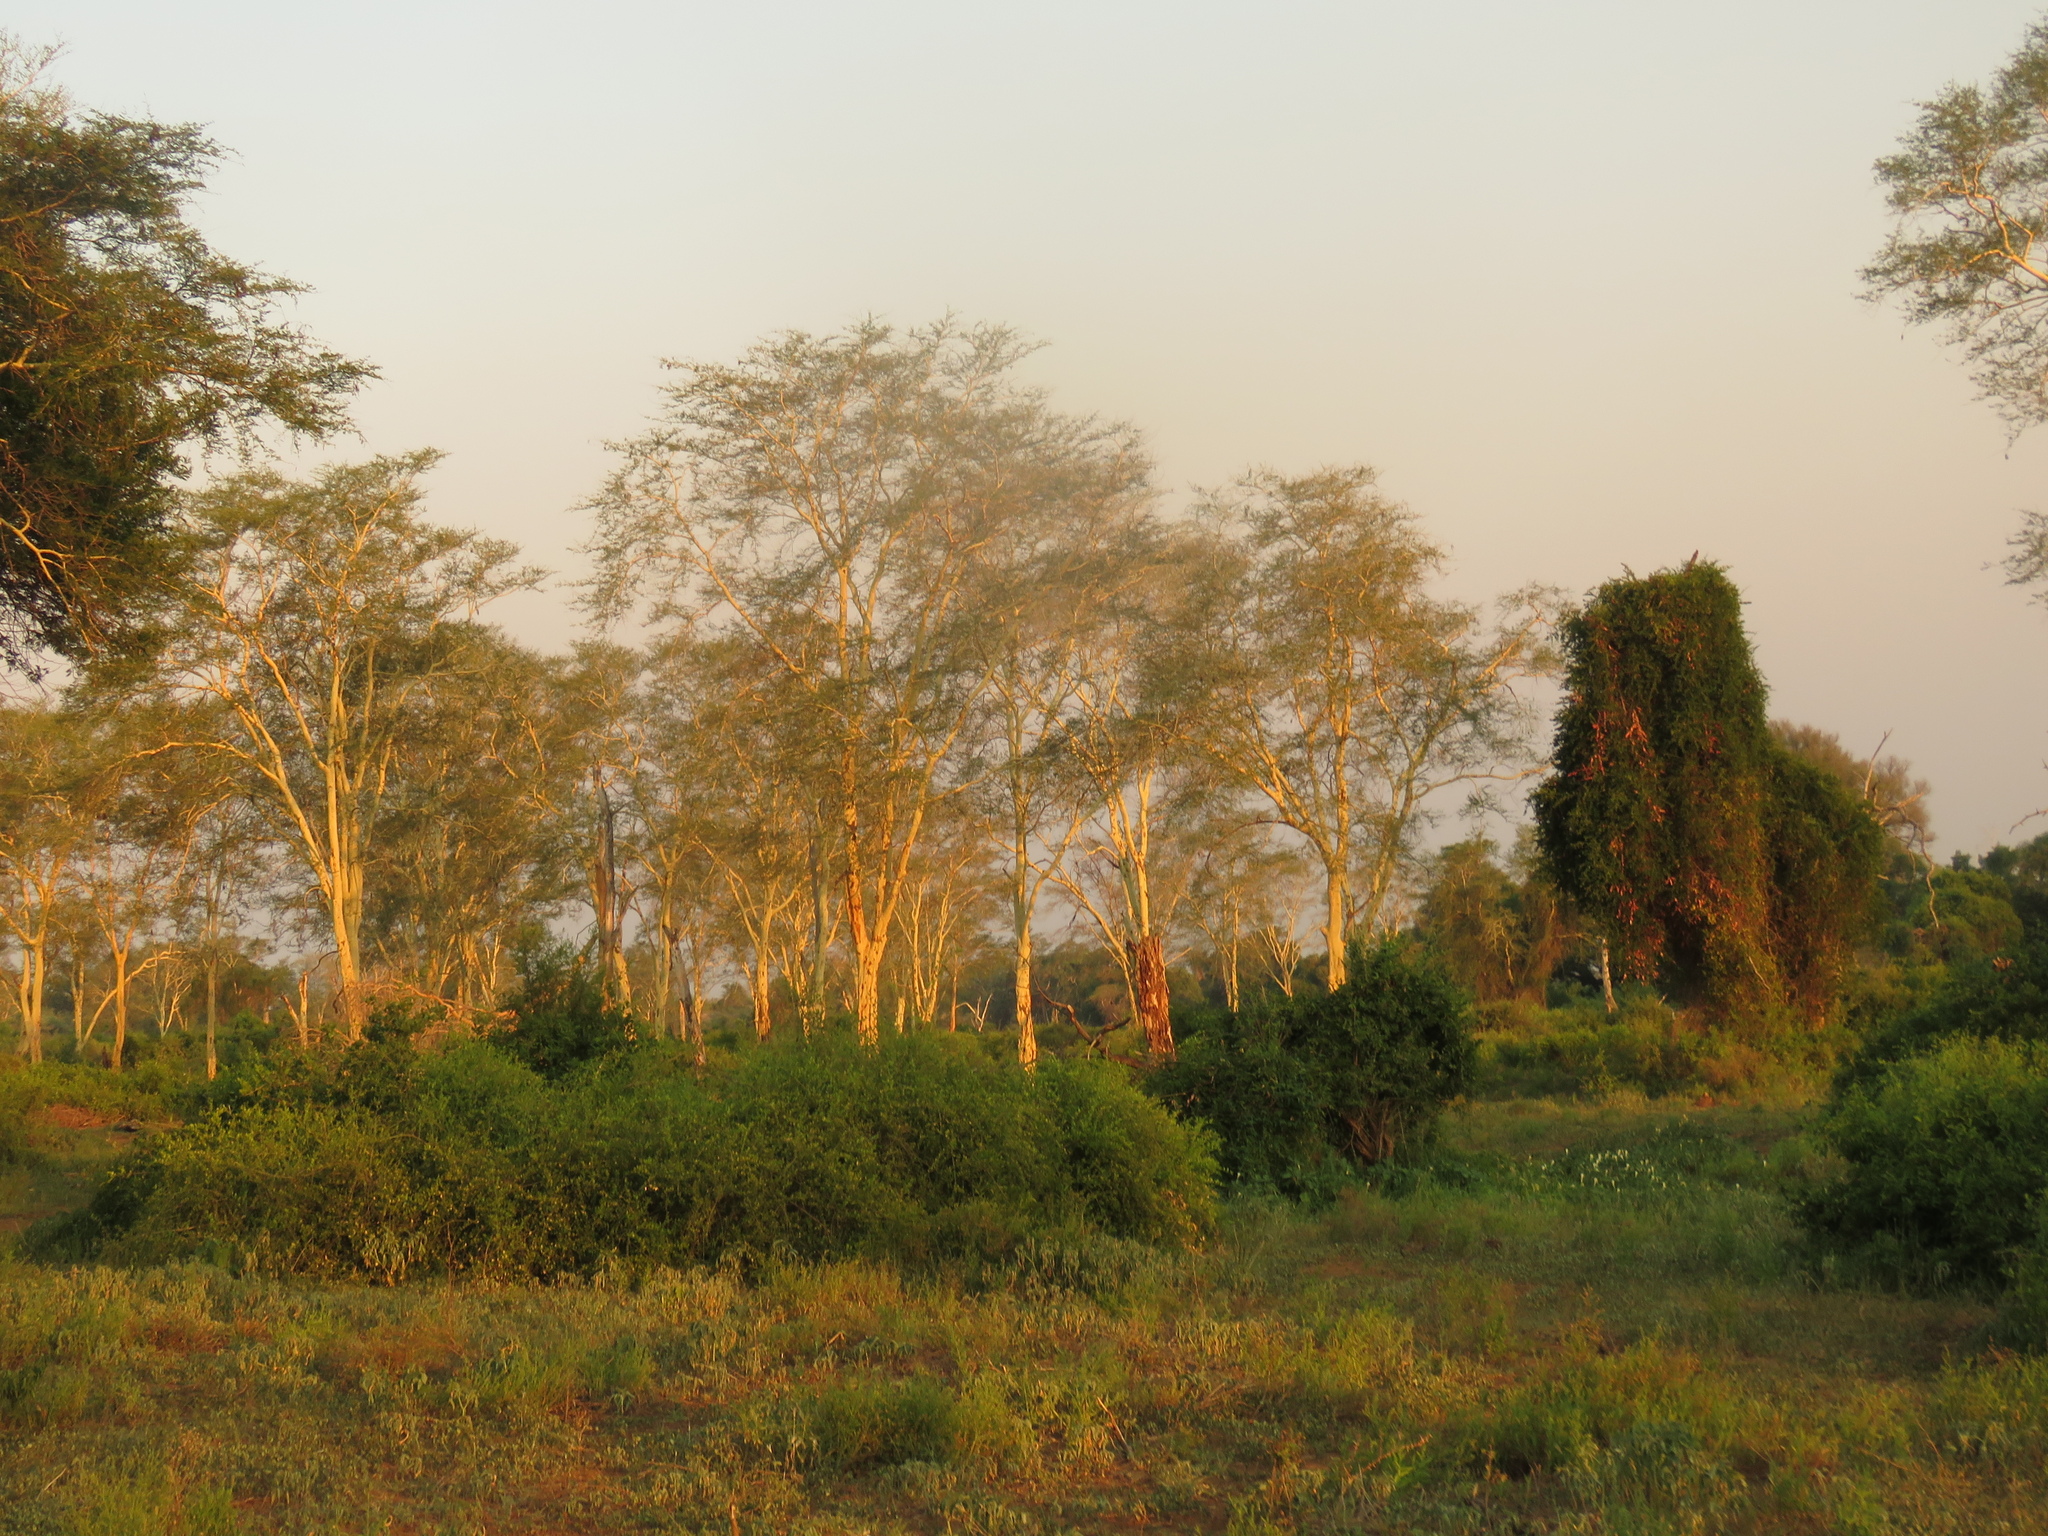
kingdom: Plantae
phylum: Tracheophyta
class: Magnoliopsida
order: Fabales
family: Fabaceae
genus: Vachellia
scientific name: Vachellia xanthophloea
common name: Fever tree
